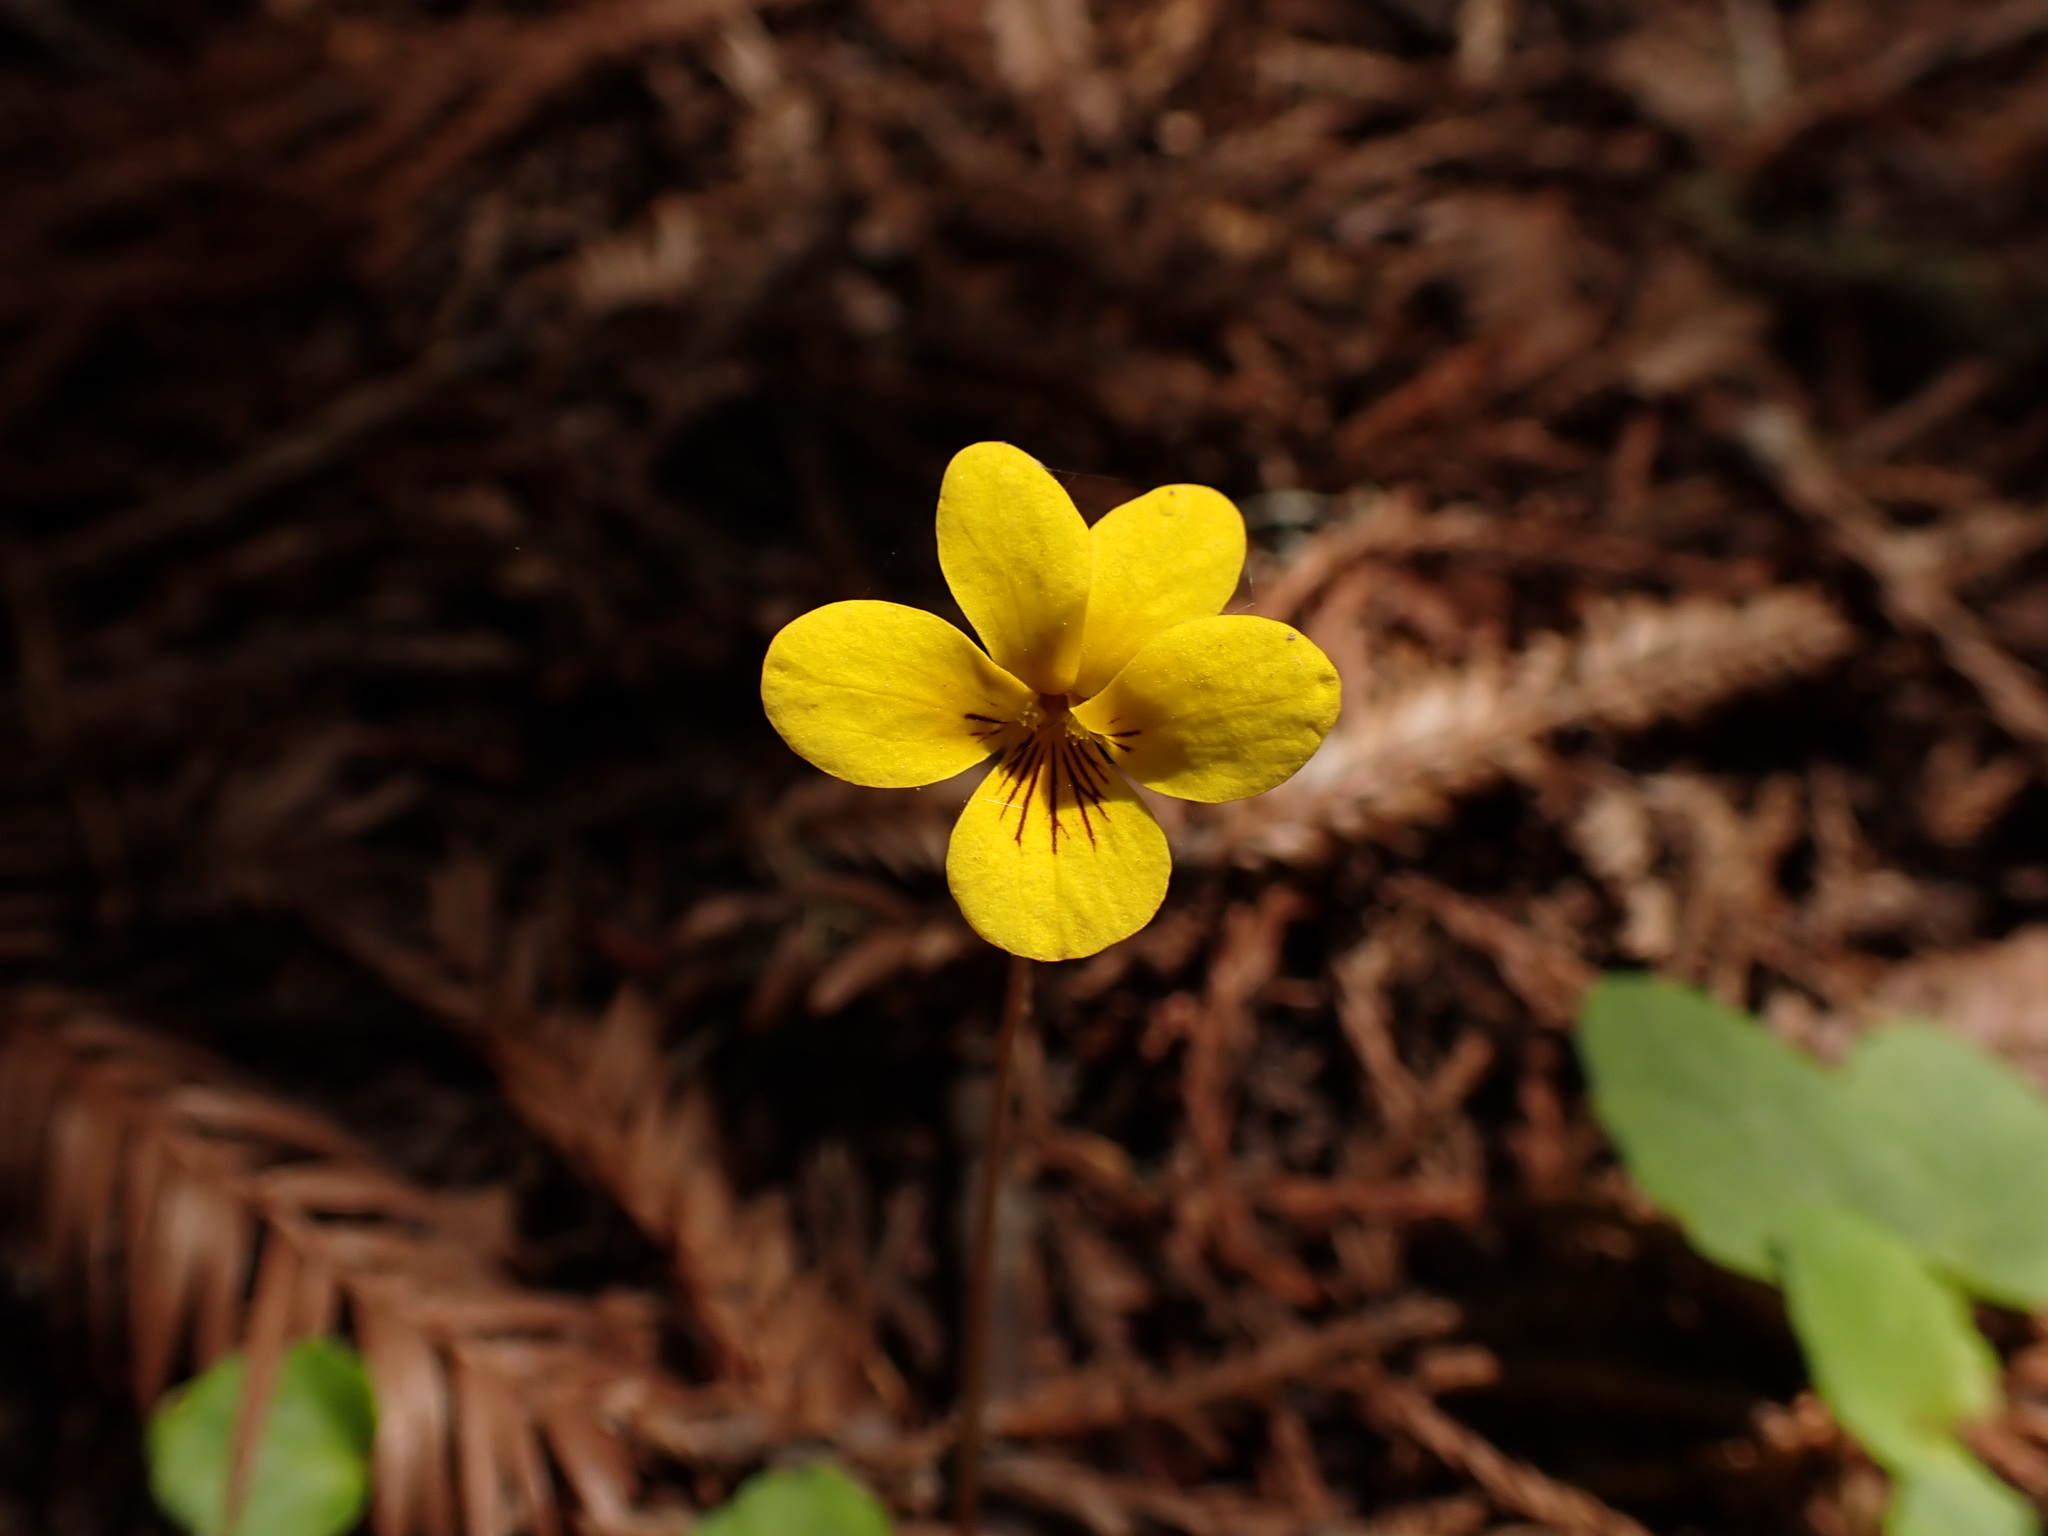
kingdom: Plantae
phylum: Tracheophyta
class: Magnoliopsida
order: Malpighiales
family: Violaceae
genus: Viola
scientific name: Viola sempervirens
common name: Evergreen violet
